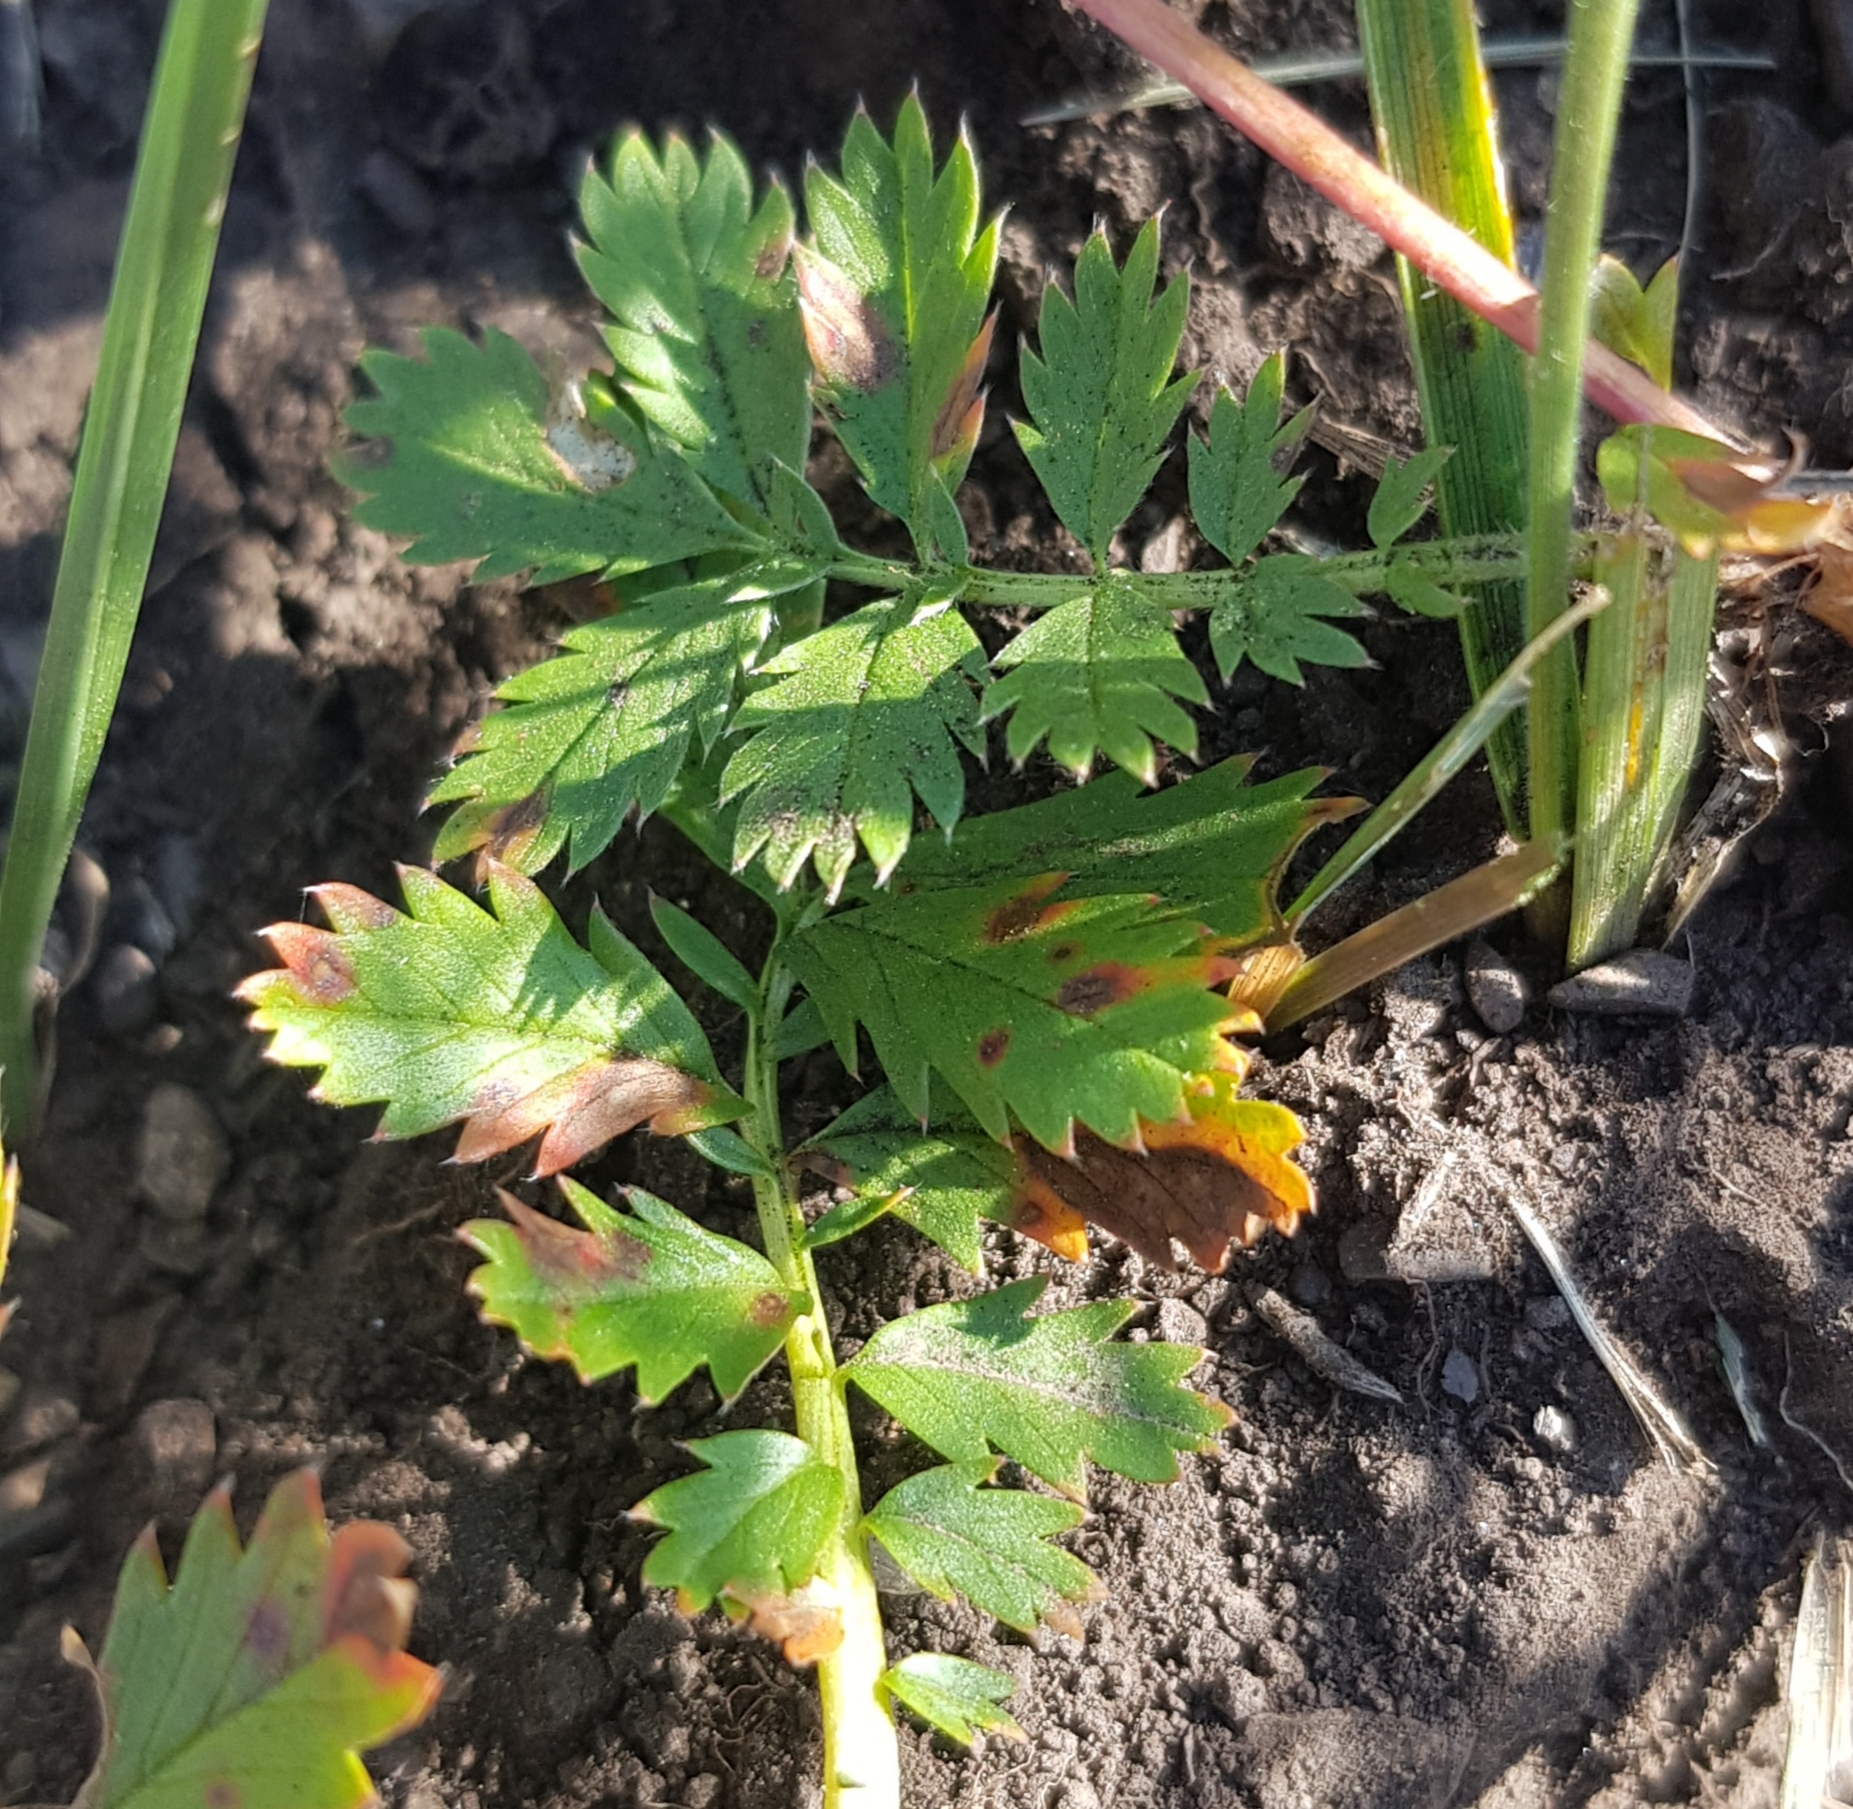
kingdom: Plantae
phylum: Tracheophyta
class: Magnoliopsida
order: Rosales
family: Rosaceae
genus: Argentina
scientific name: Argentina anserina
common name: Common silverweed
